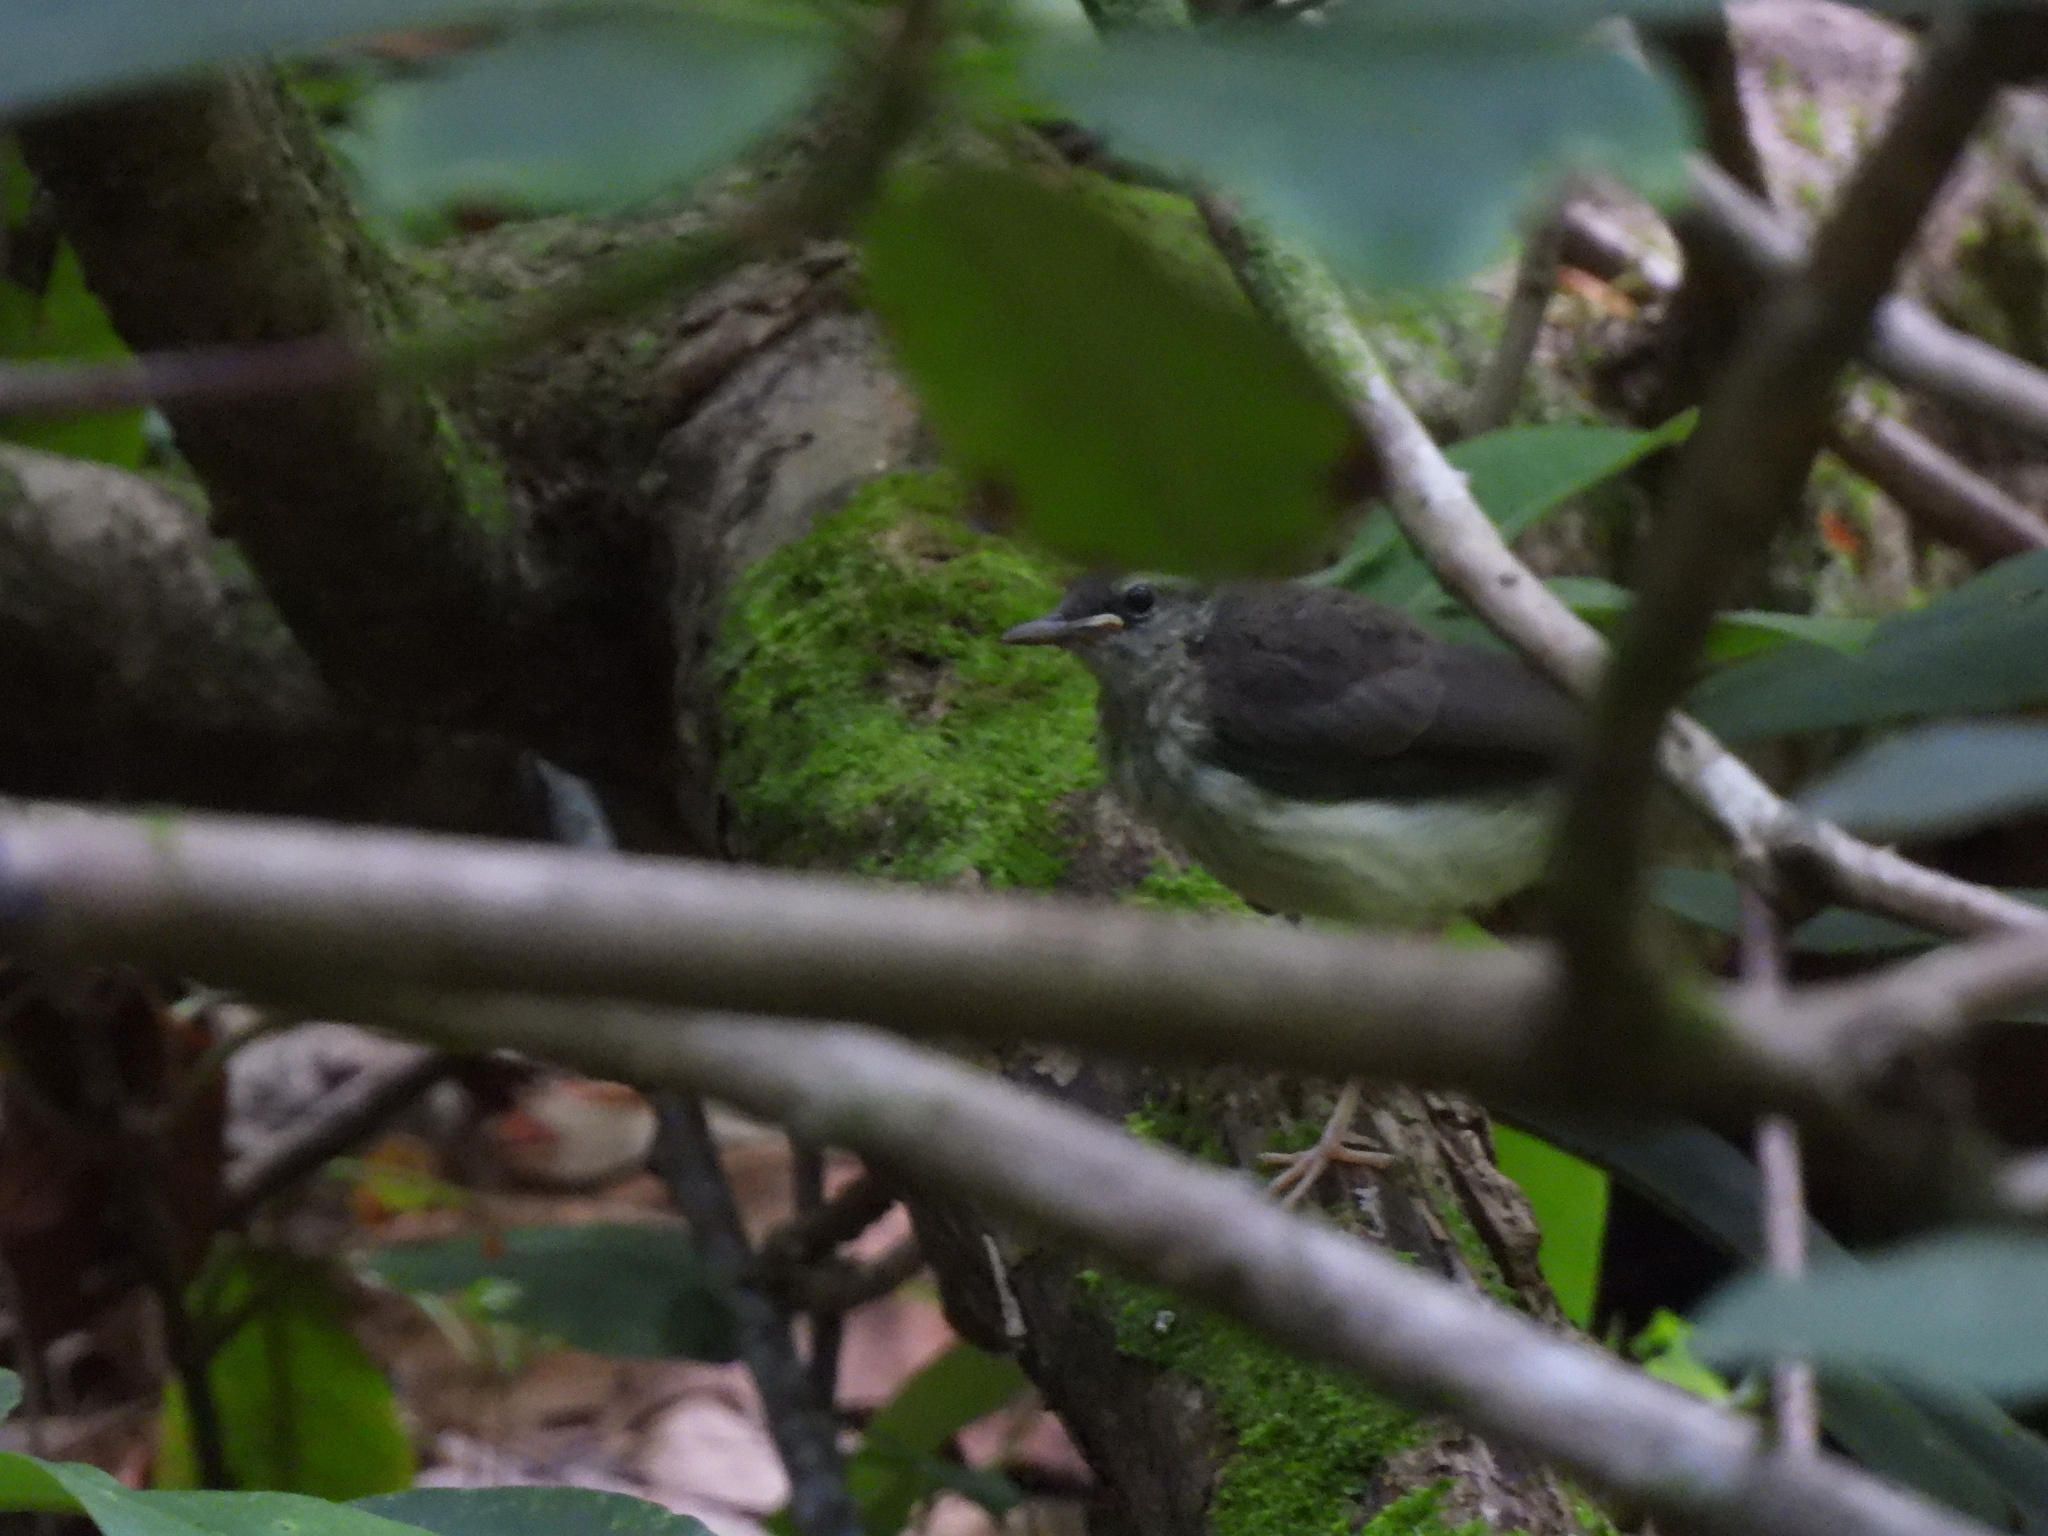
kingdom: Animalia
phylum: Chordata
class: Aves
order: Passeriformes
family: Parulidae
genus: Parkesia
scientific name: Parkesia motacilla
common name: Louisiana waterthrush
